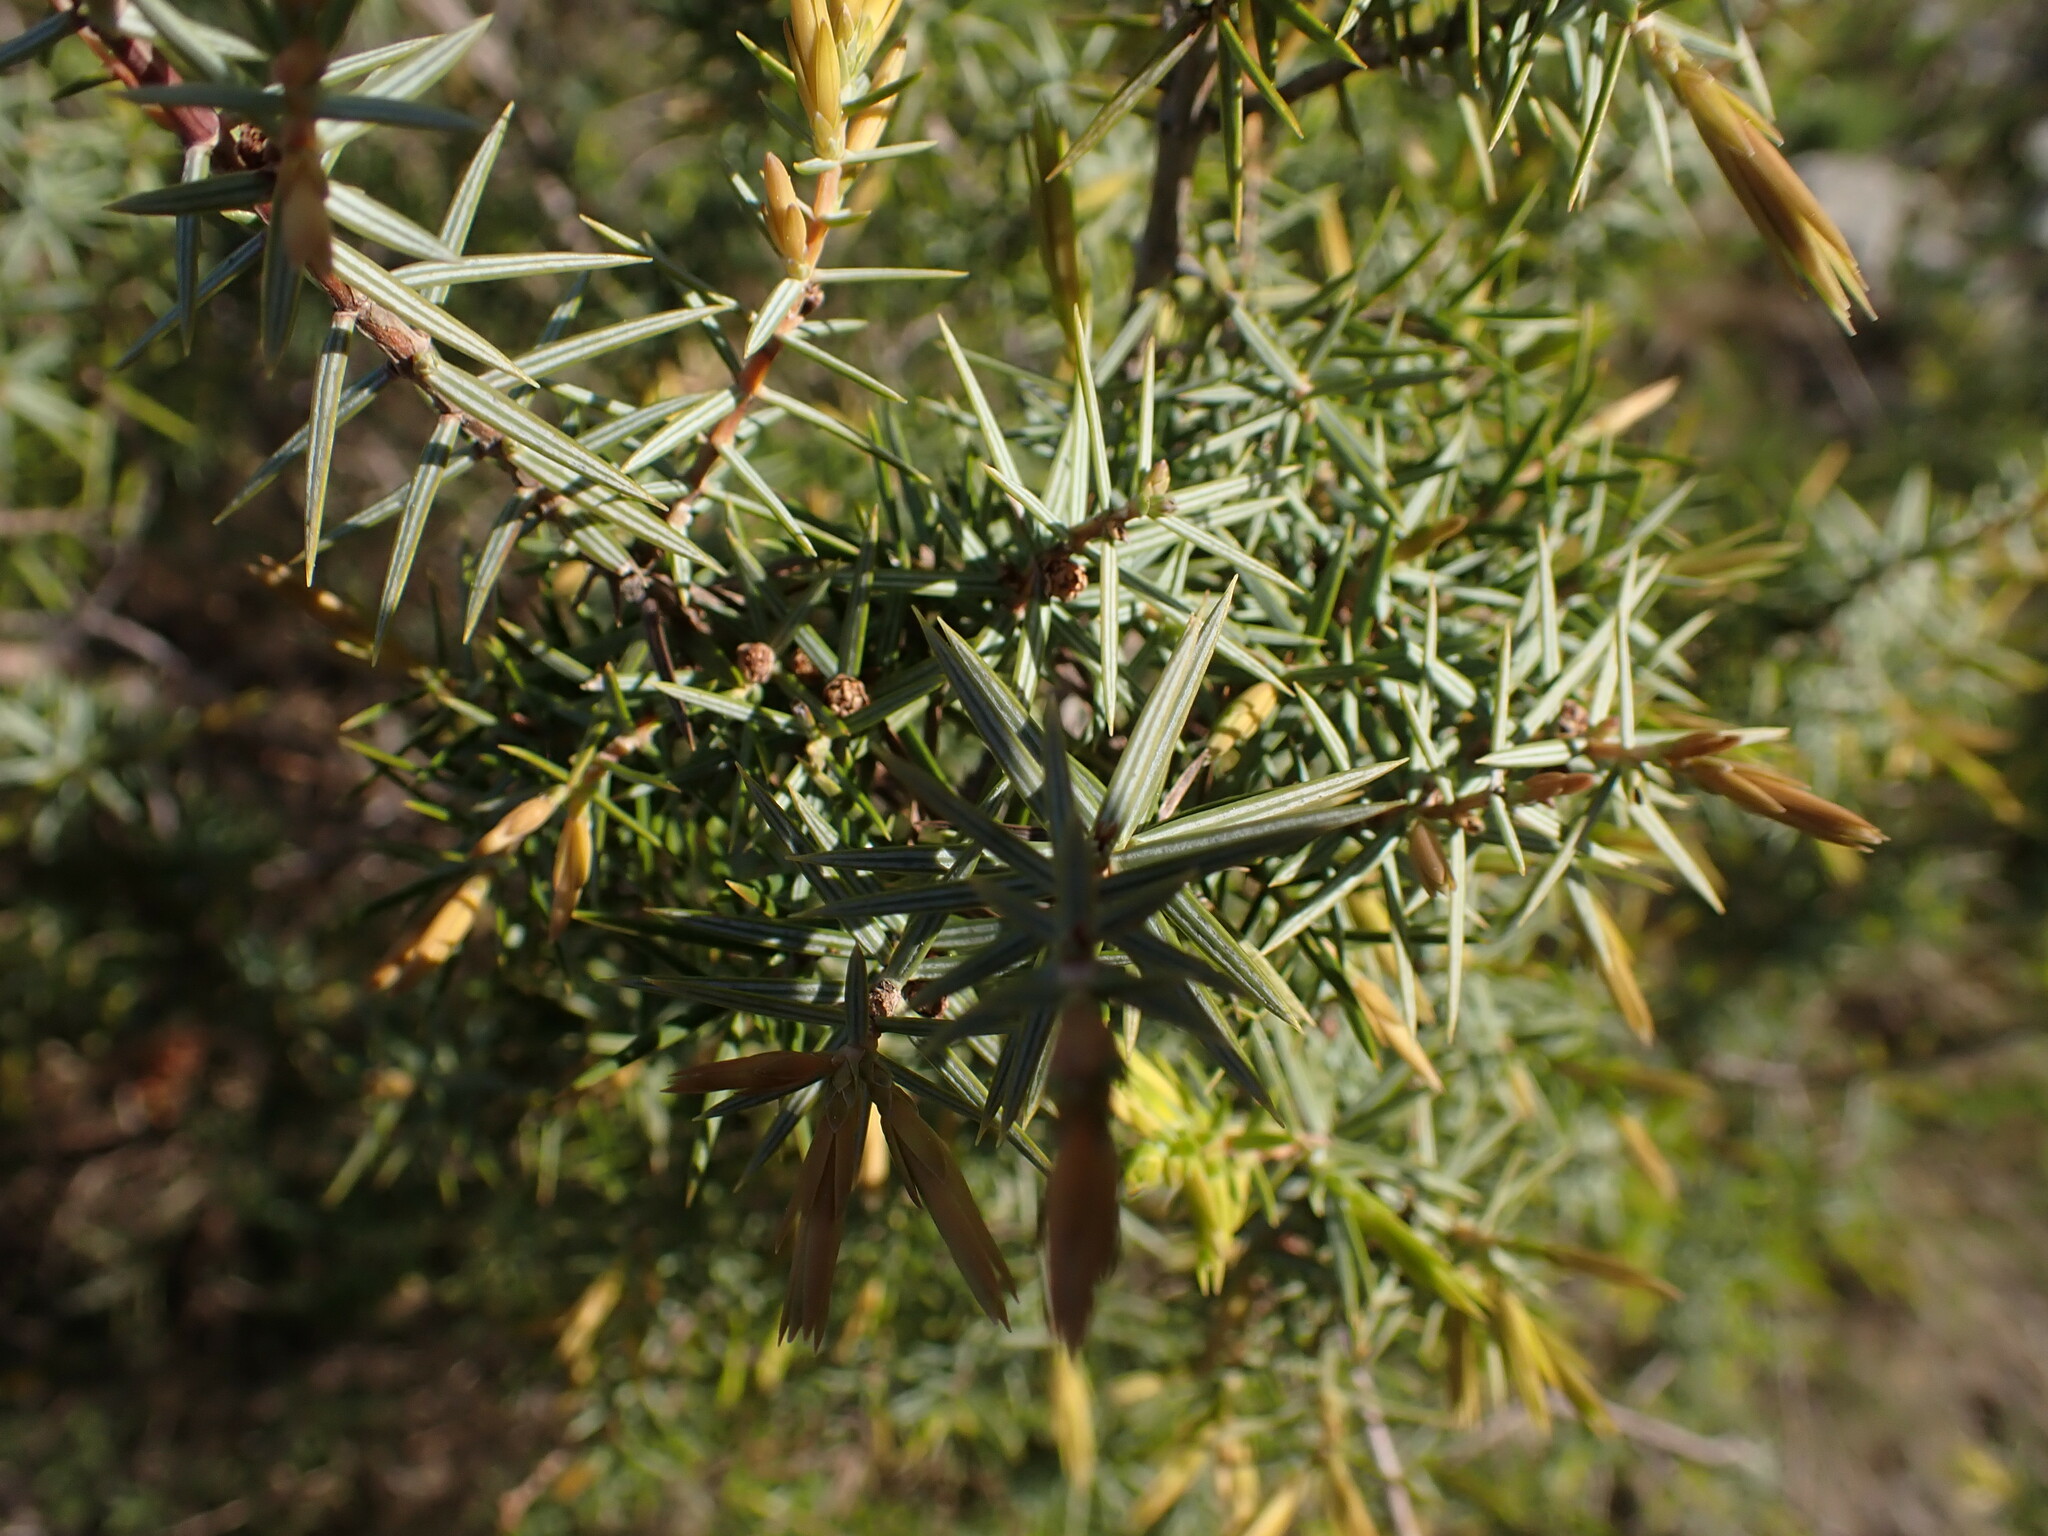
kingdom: Plantae
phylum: Tracheophyta
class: Pinopsida
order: Pinales
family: Cupressaceae
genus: Juniperus
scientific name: Juniperus oxycedrus
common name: Prickly juniper
